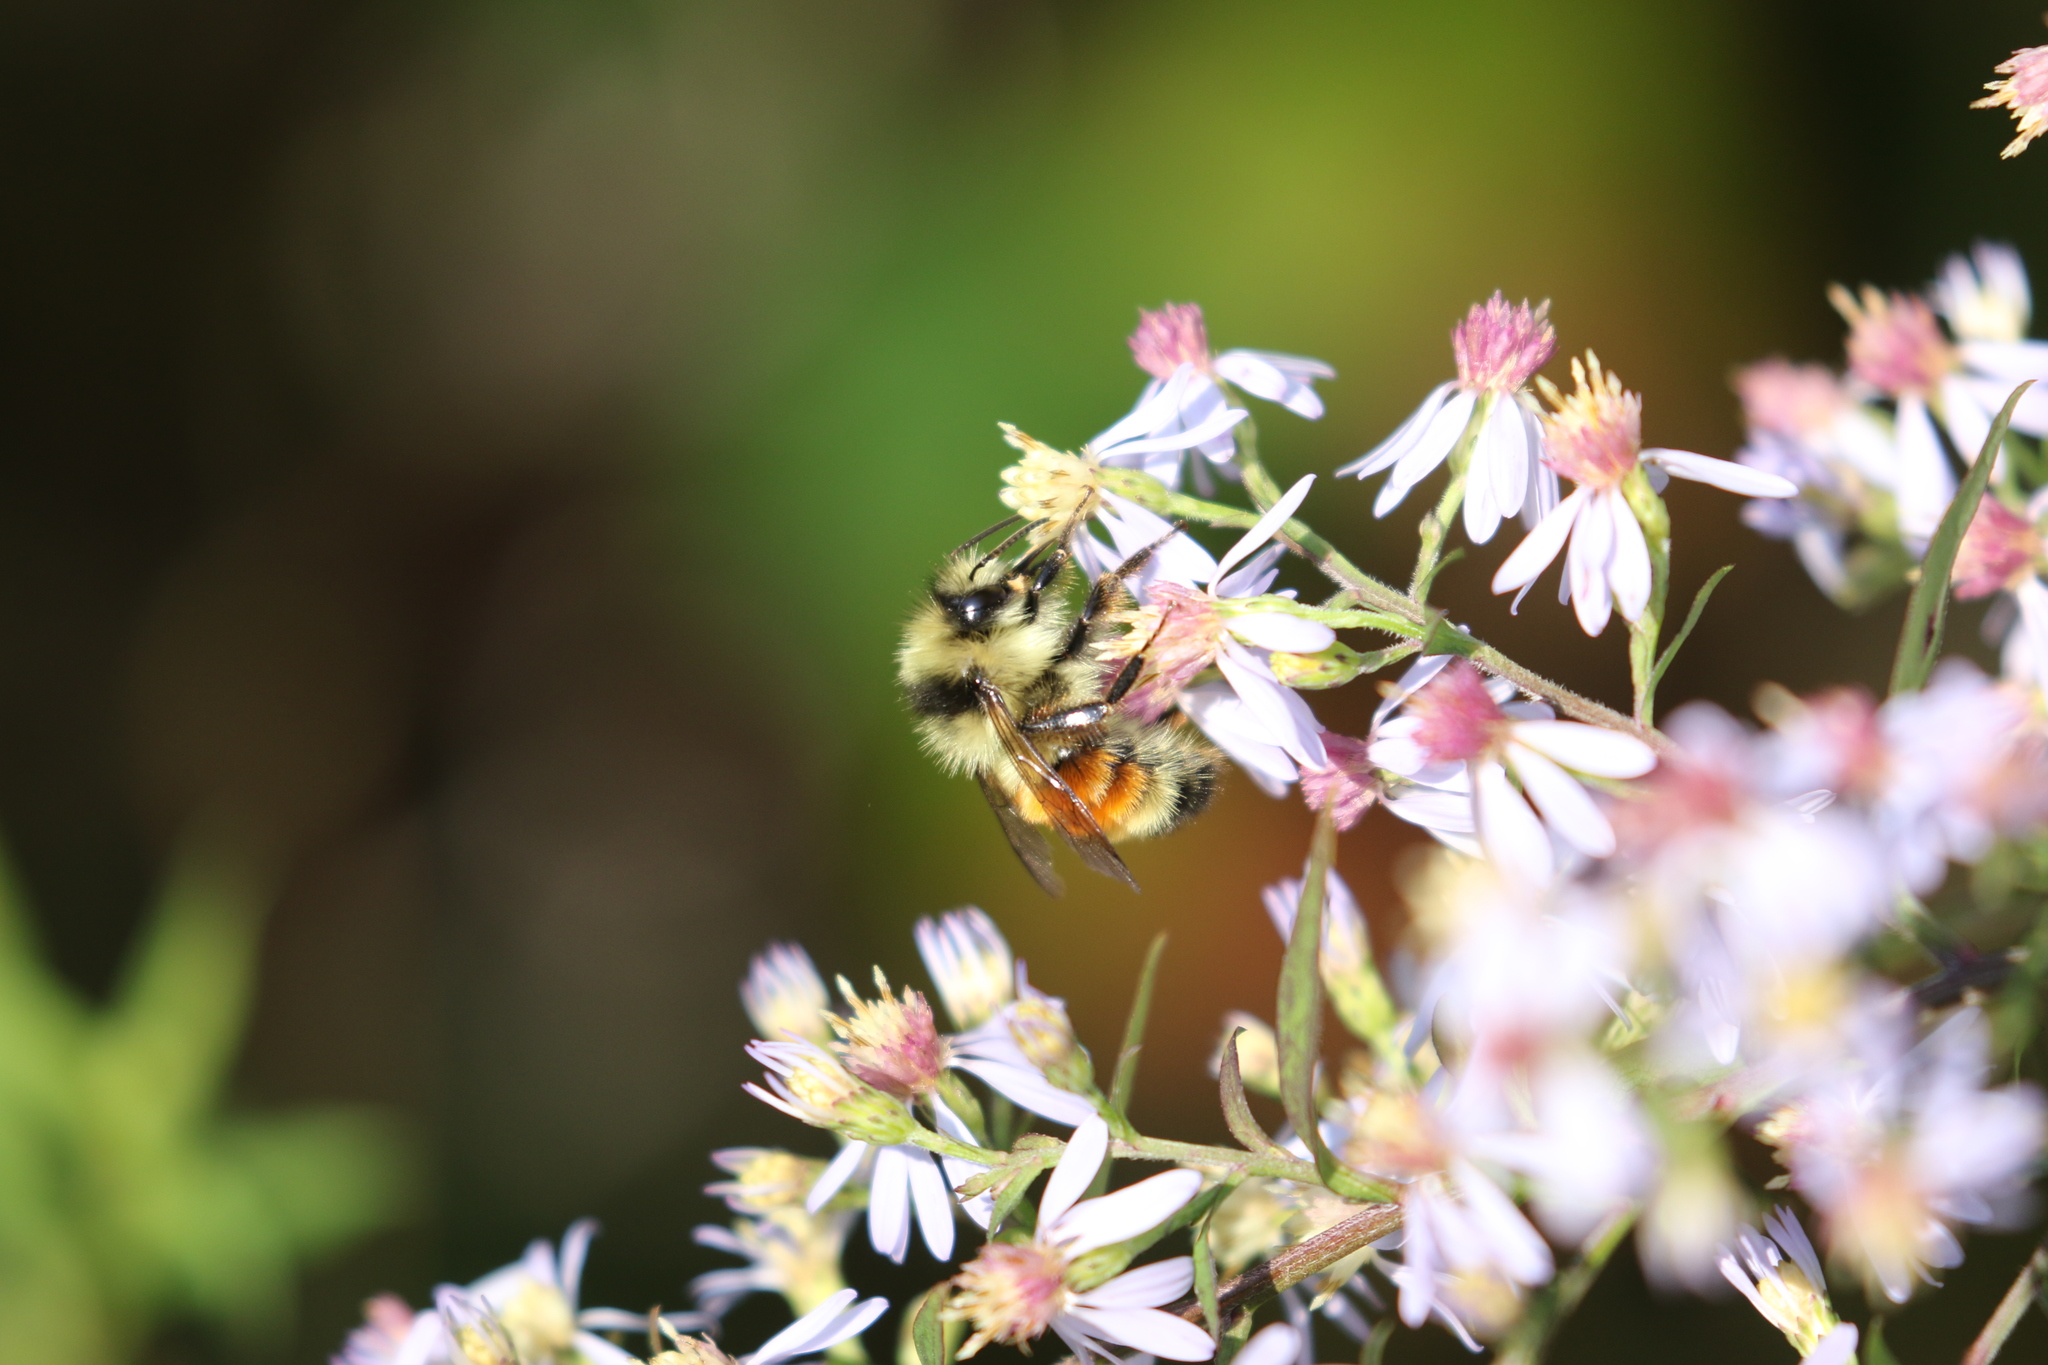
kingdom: Animalia
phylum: Arthropoda
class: Insecta
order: Hymenoptera
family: Apidae
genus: Bombus
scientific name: Bombus ternarius
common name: Tri-colored bumble bee
